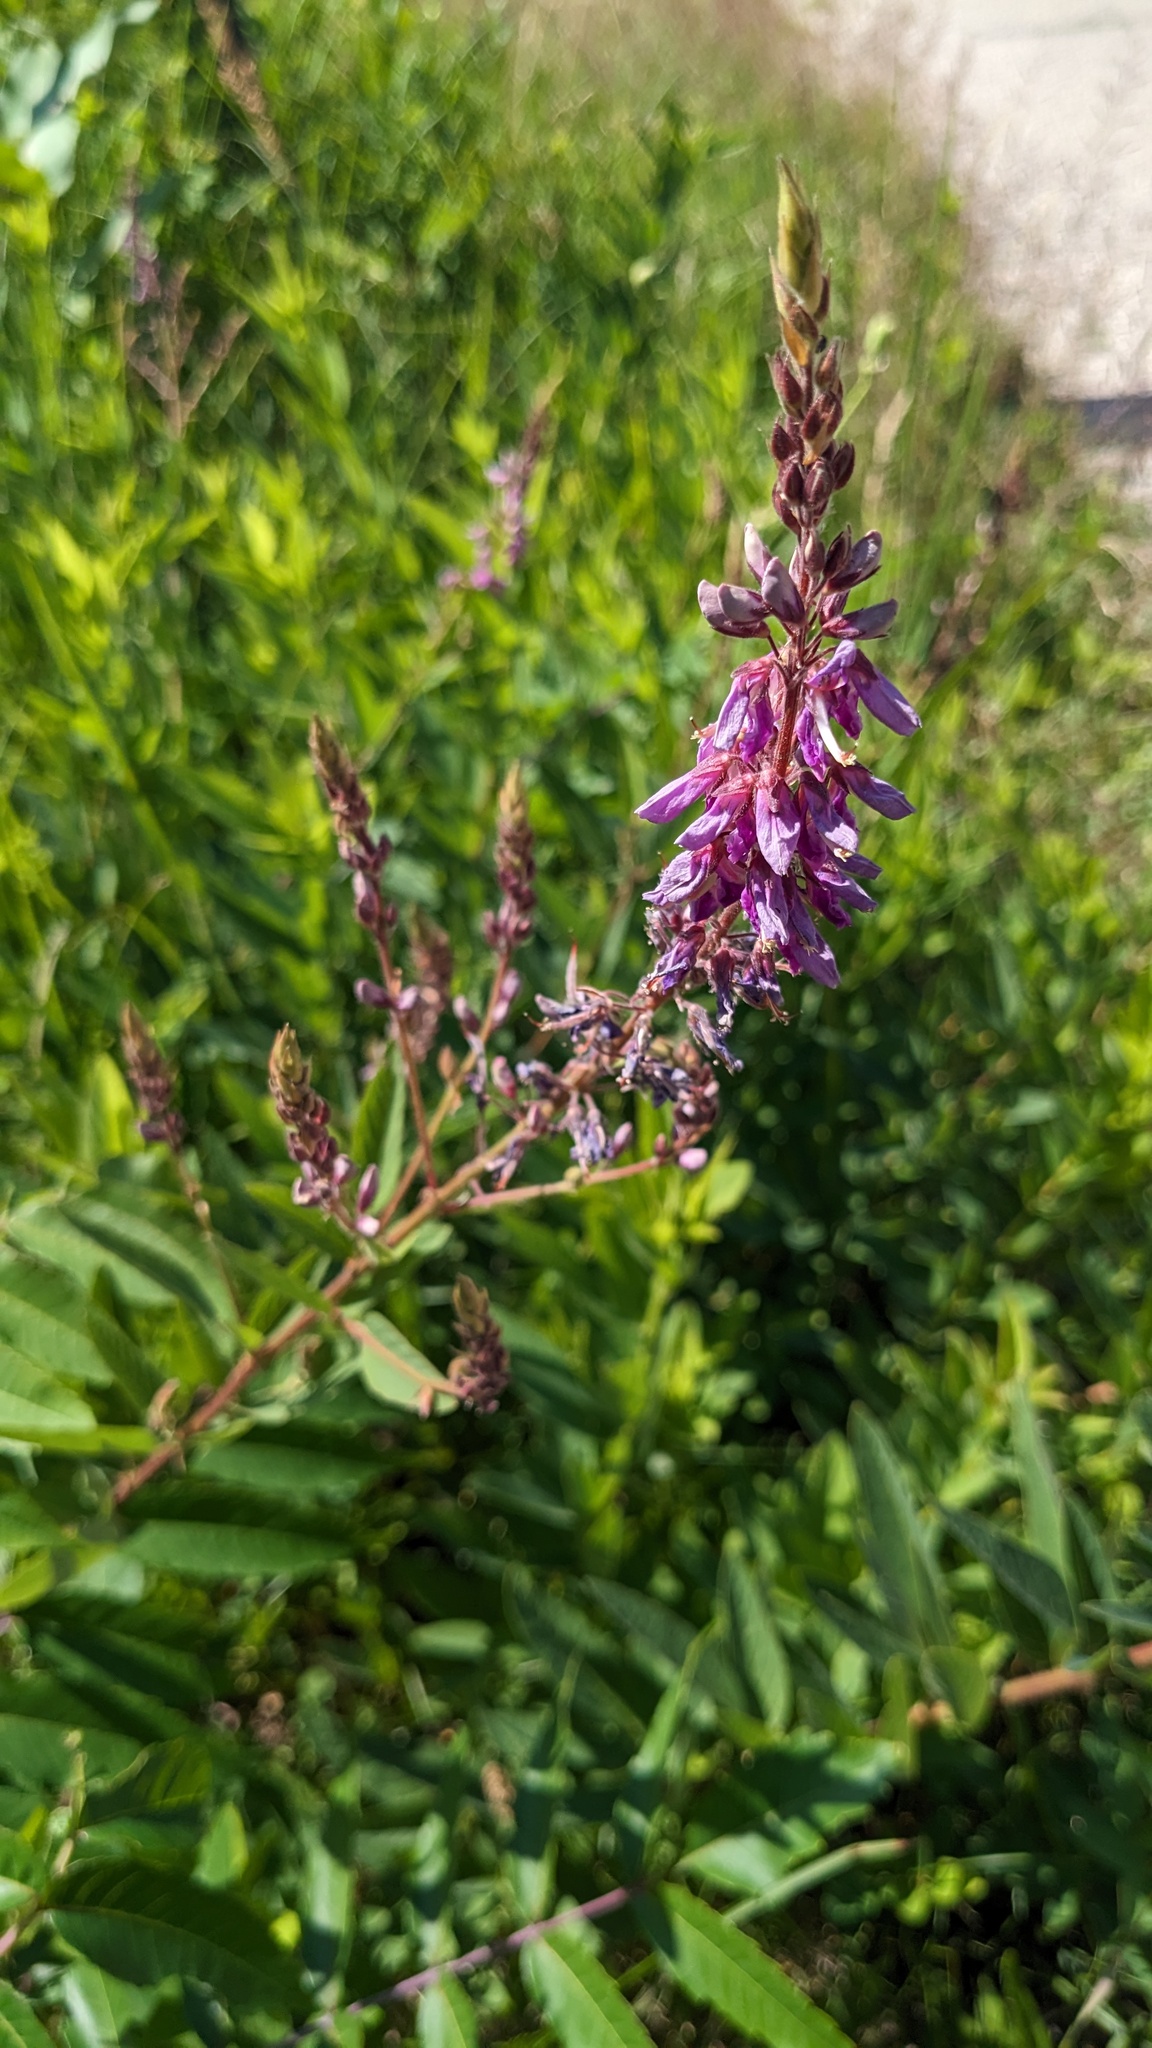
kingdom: Plantae
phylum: Tracheophyta
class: Magnoliopsida
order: Fabales
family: Fabaceae
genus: Desmodium
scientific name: Desmodium canadense
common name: Canada tick-trefoil
